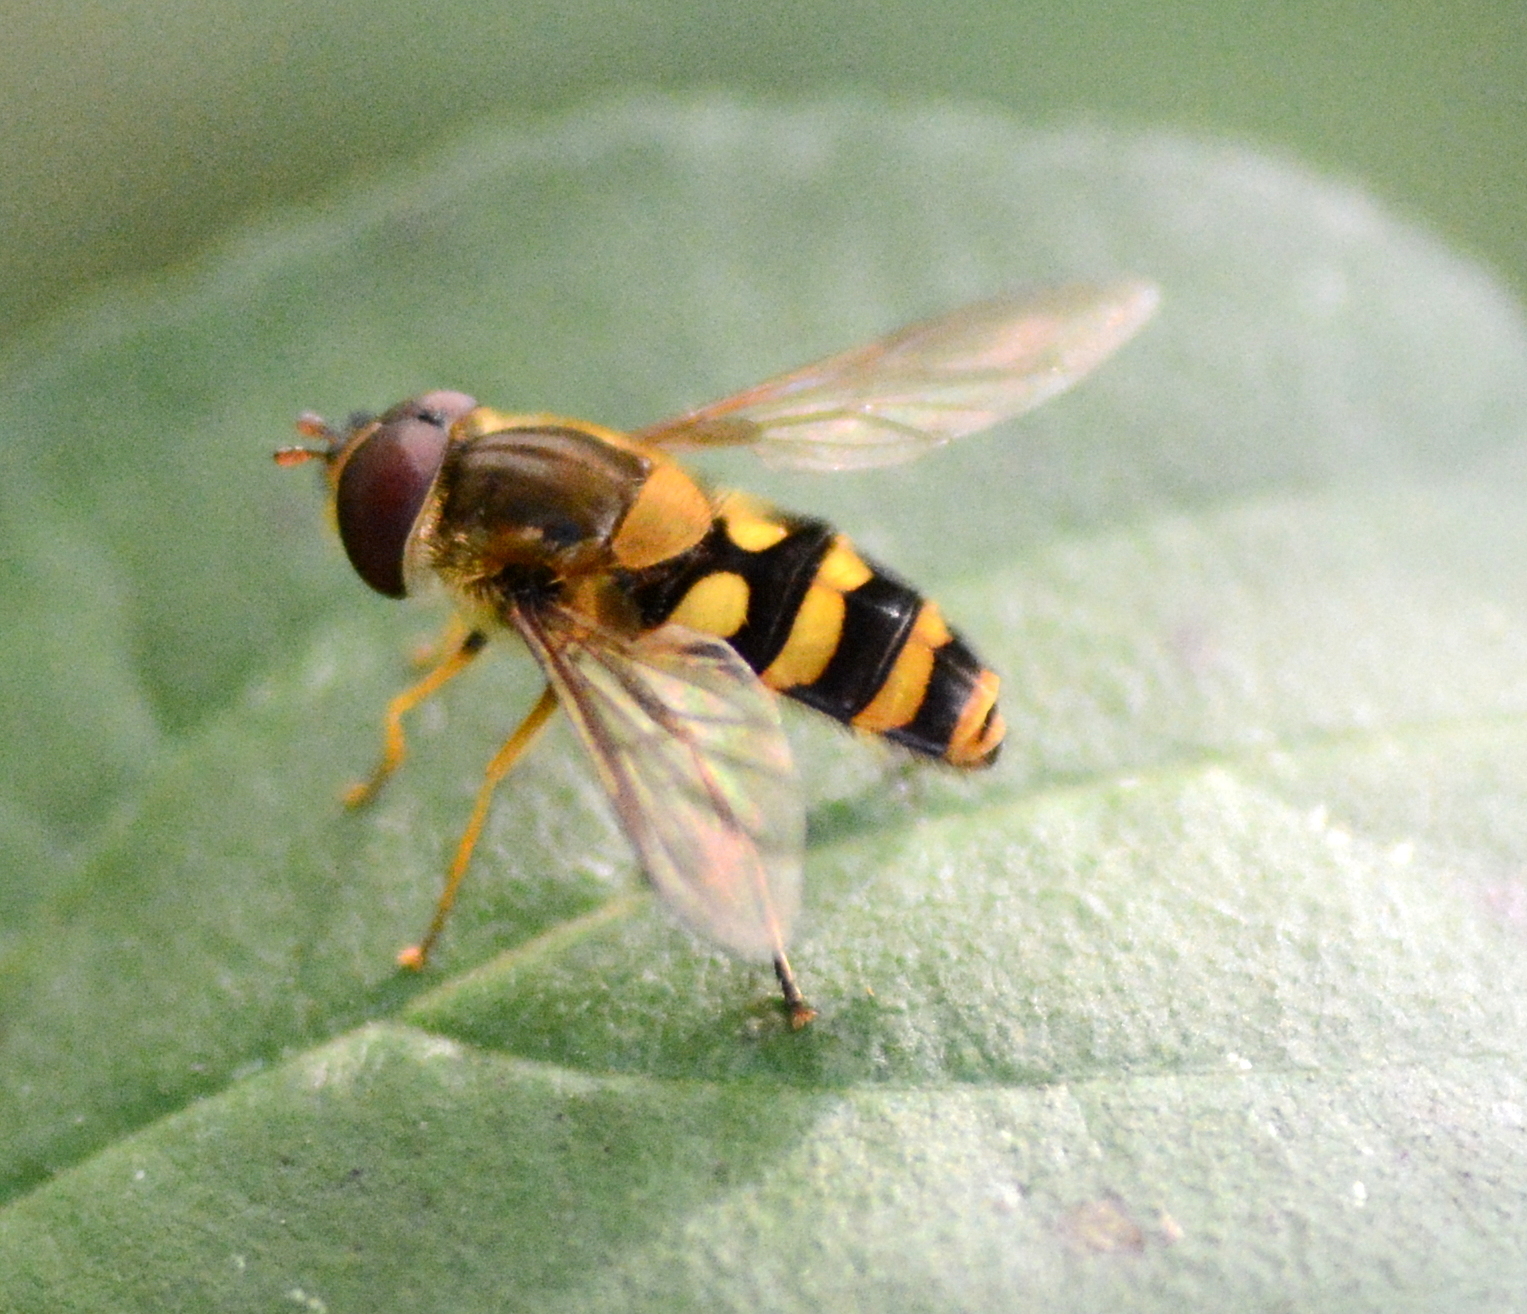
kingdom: Animalia
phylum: Arthropoda
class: Insecta
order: Diptera
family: Syrphidae
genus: Syrphus
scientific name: Syrphus
